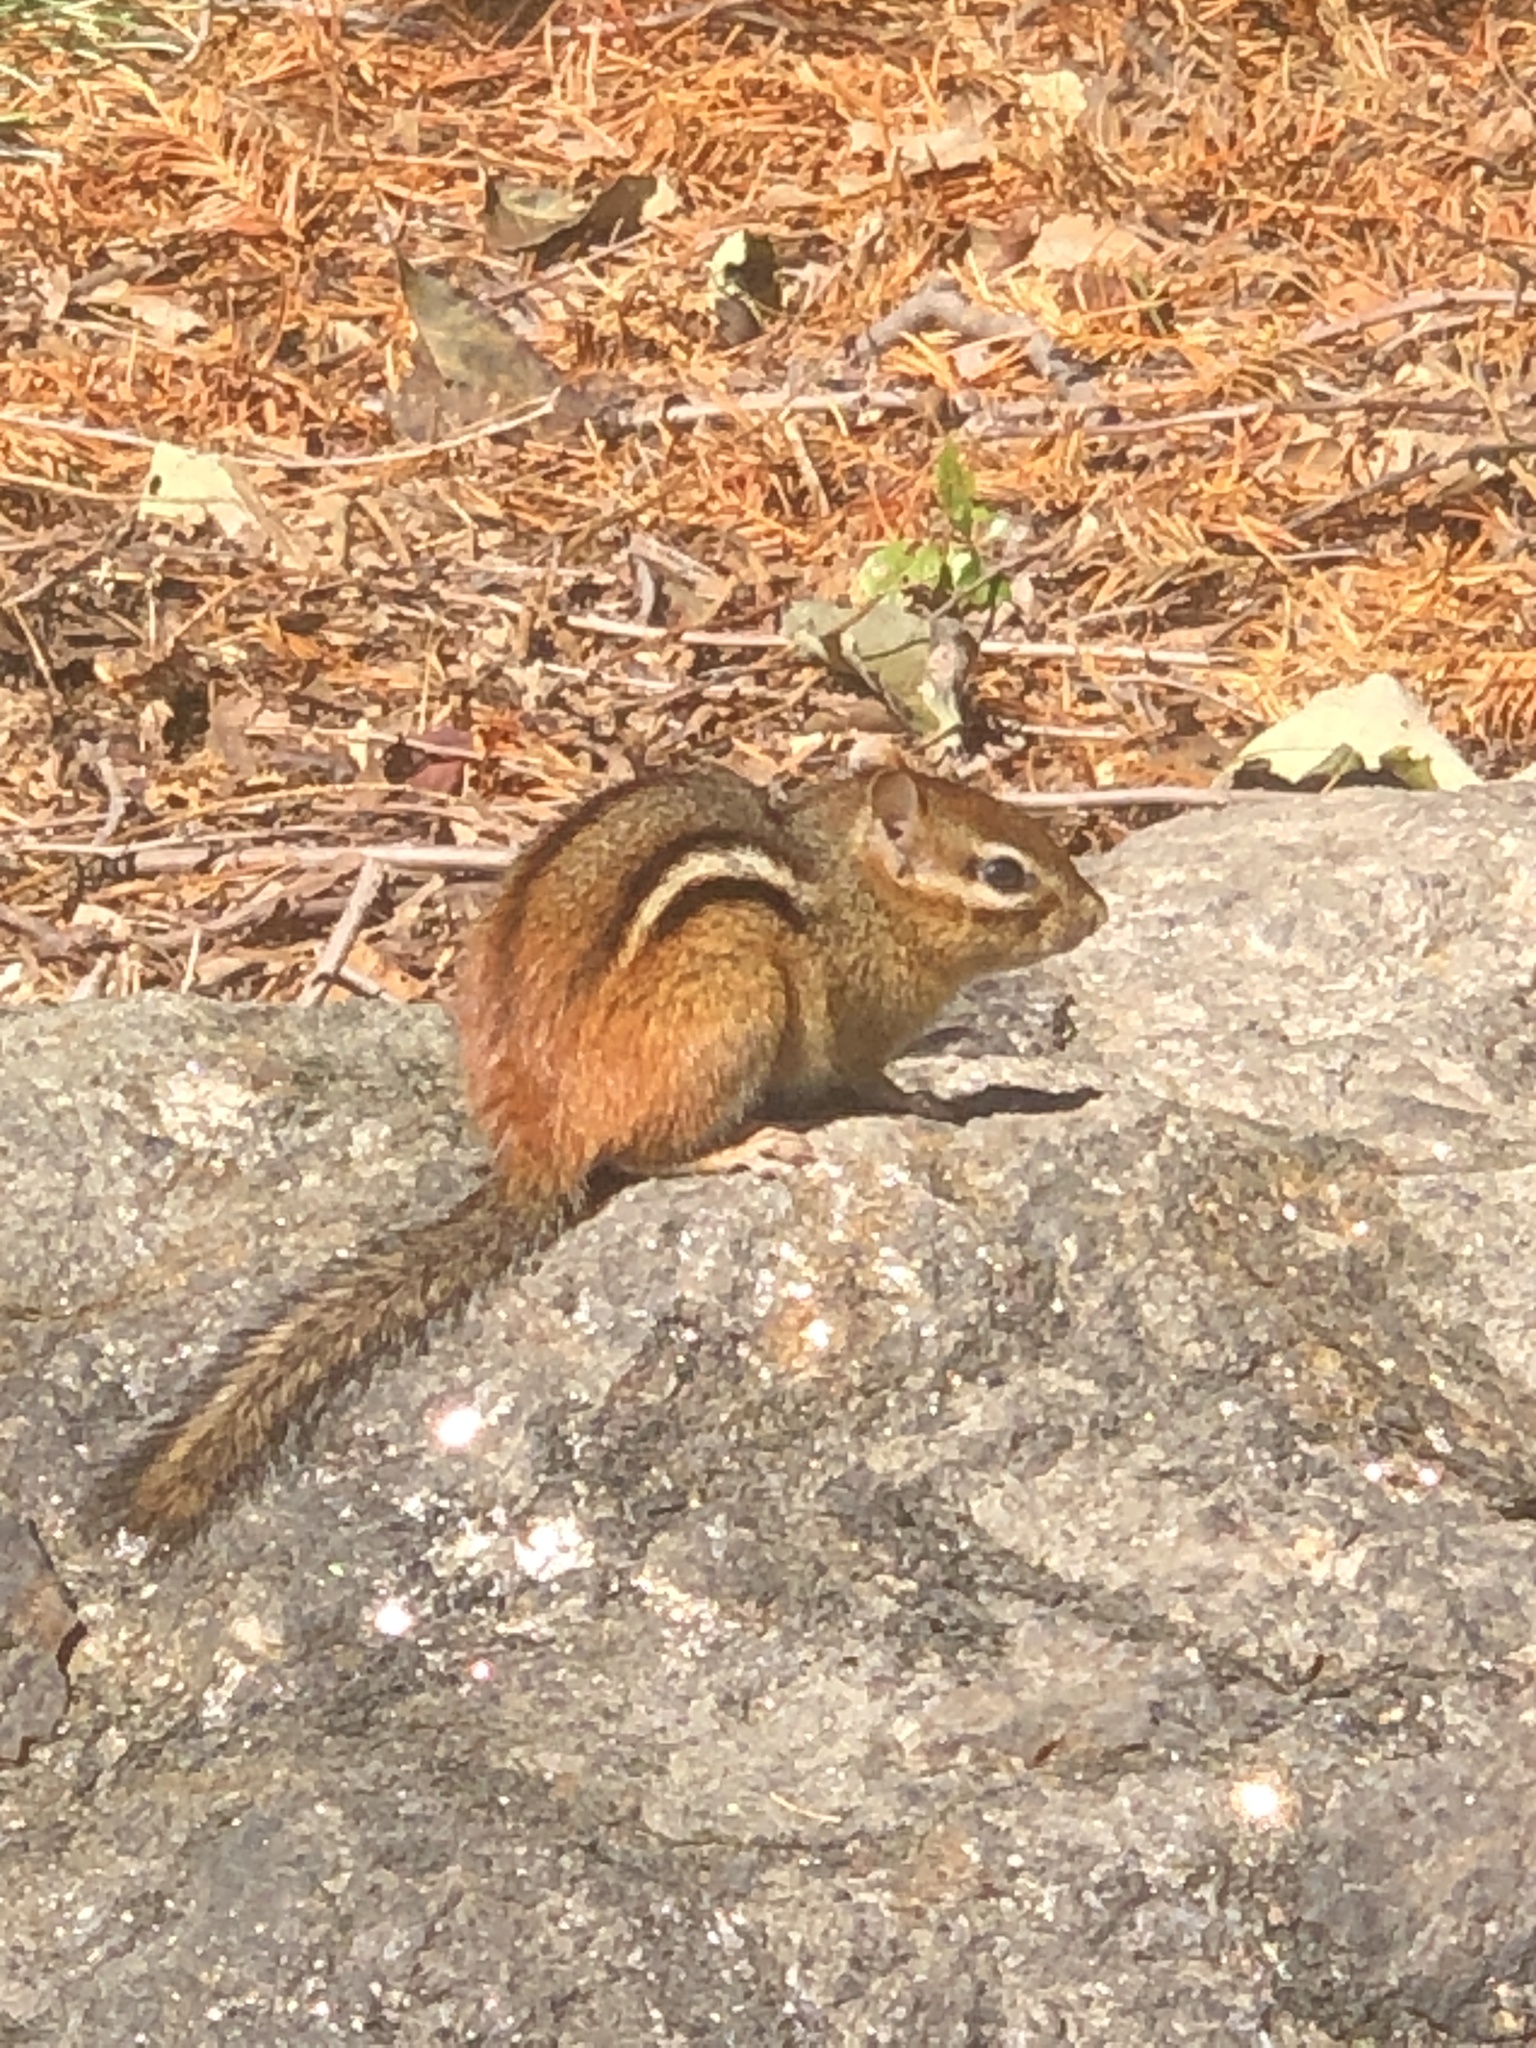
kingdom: Animalia
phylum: Chordata
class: Mammalia
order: Rodentia
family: Sciuridae
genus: Tamias
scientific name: Tamias striatus
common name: Eastern chipmunk
